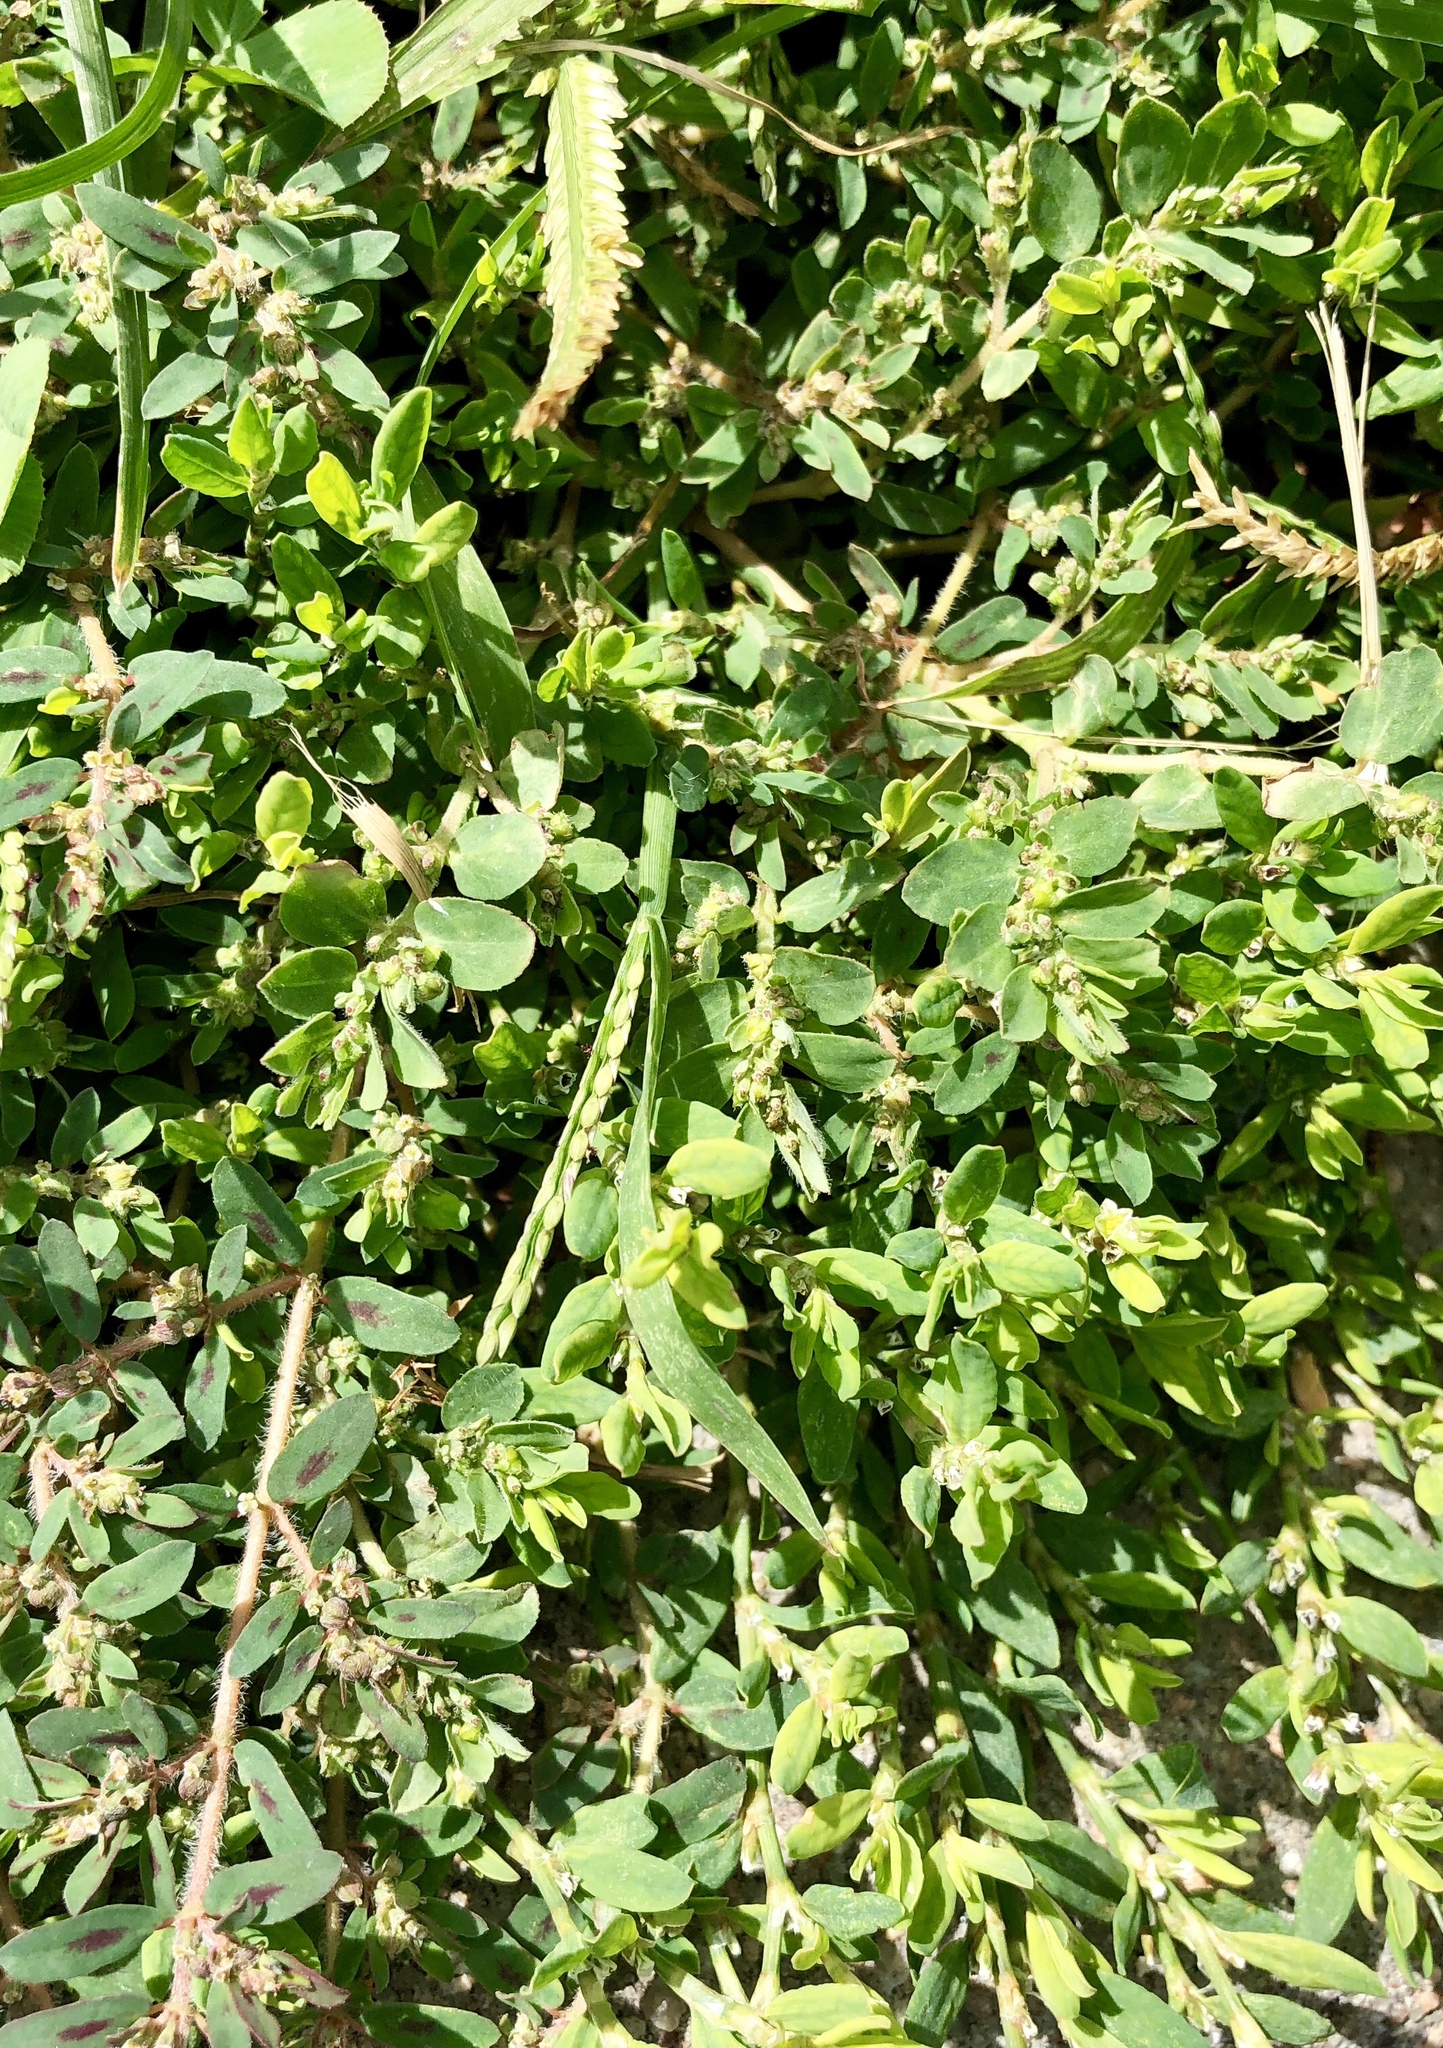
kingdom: Plantae
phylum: Tracheophyta
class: Magnoliopsida
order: Malpighiales
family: Euphorbiaceae
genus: Euphorbia
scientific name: Euphorbia prostrata
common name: Prostrate sandmat
